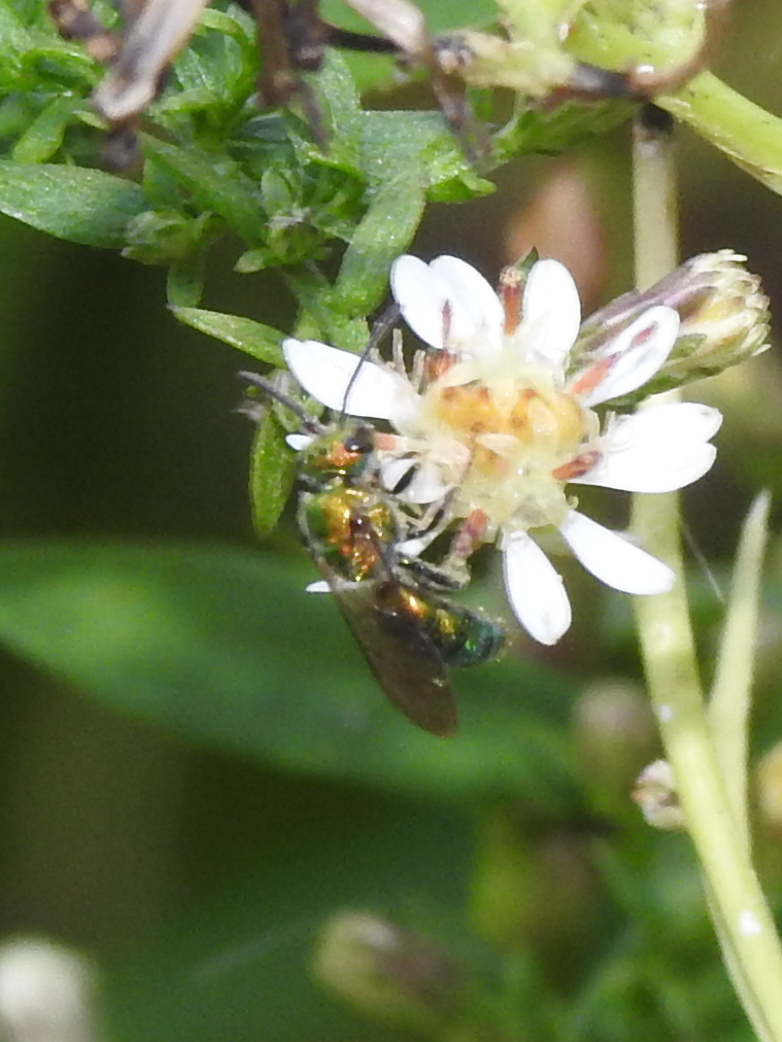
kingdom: Animalia
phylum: Arthropoda
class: Insecta
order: Hymenoptera
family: Halictidae
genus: Augochlora
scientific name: Augochlora pura
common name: Pure green sweat bee
